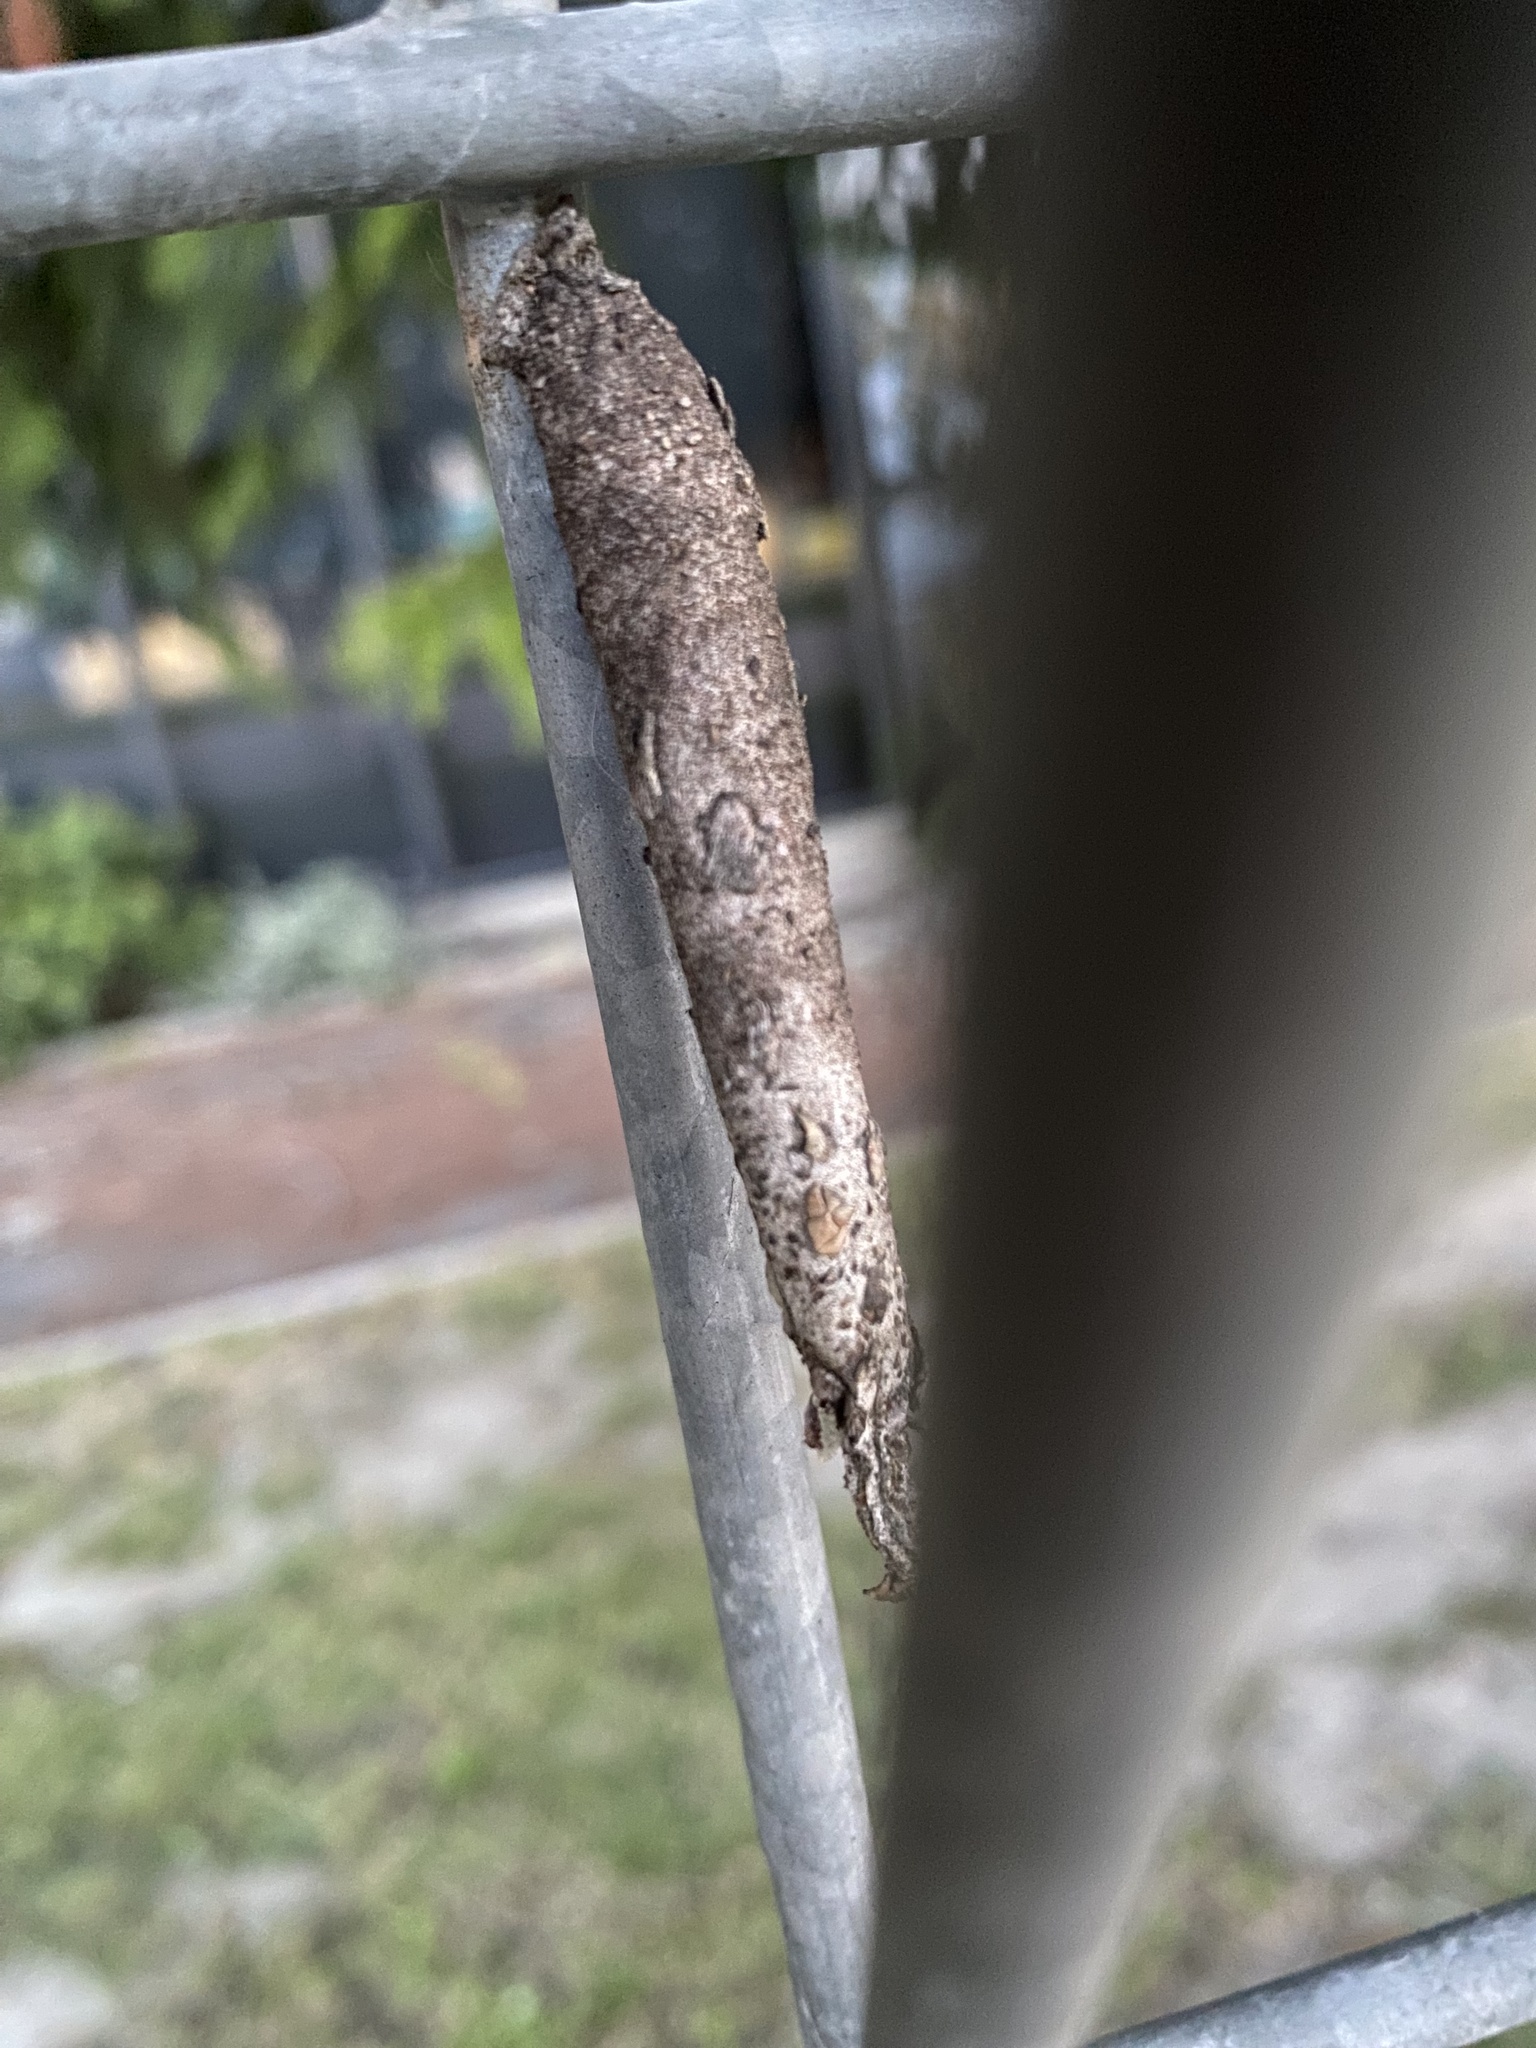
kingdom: Animalia
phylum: Arthropoda
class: Insecta
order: Lepidoptera
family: Psychidae
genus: Liothula
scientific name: Liothula omnivora
